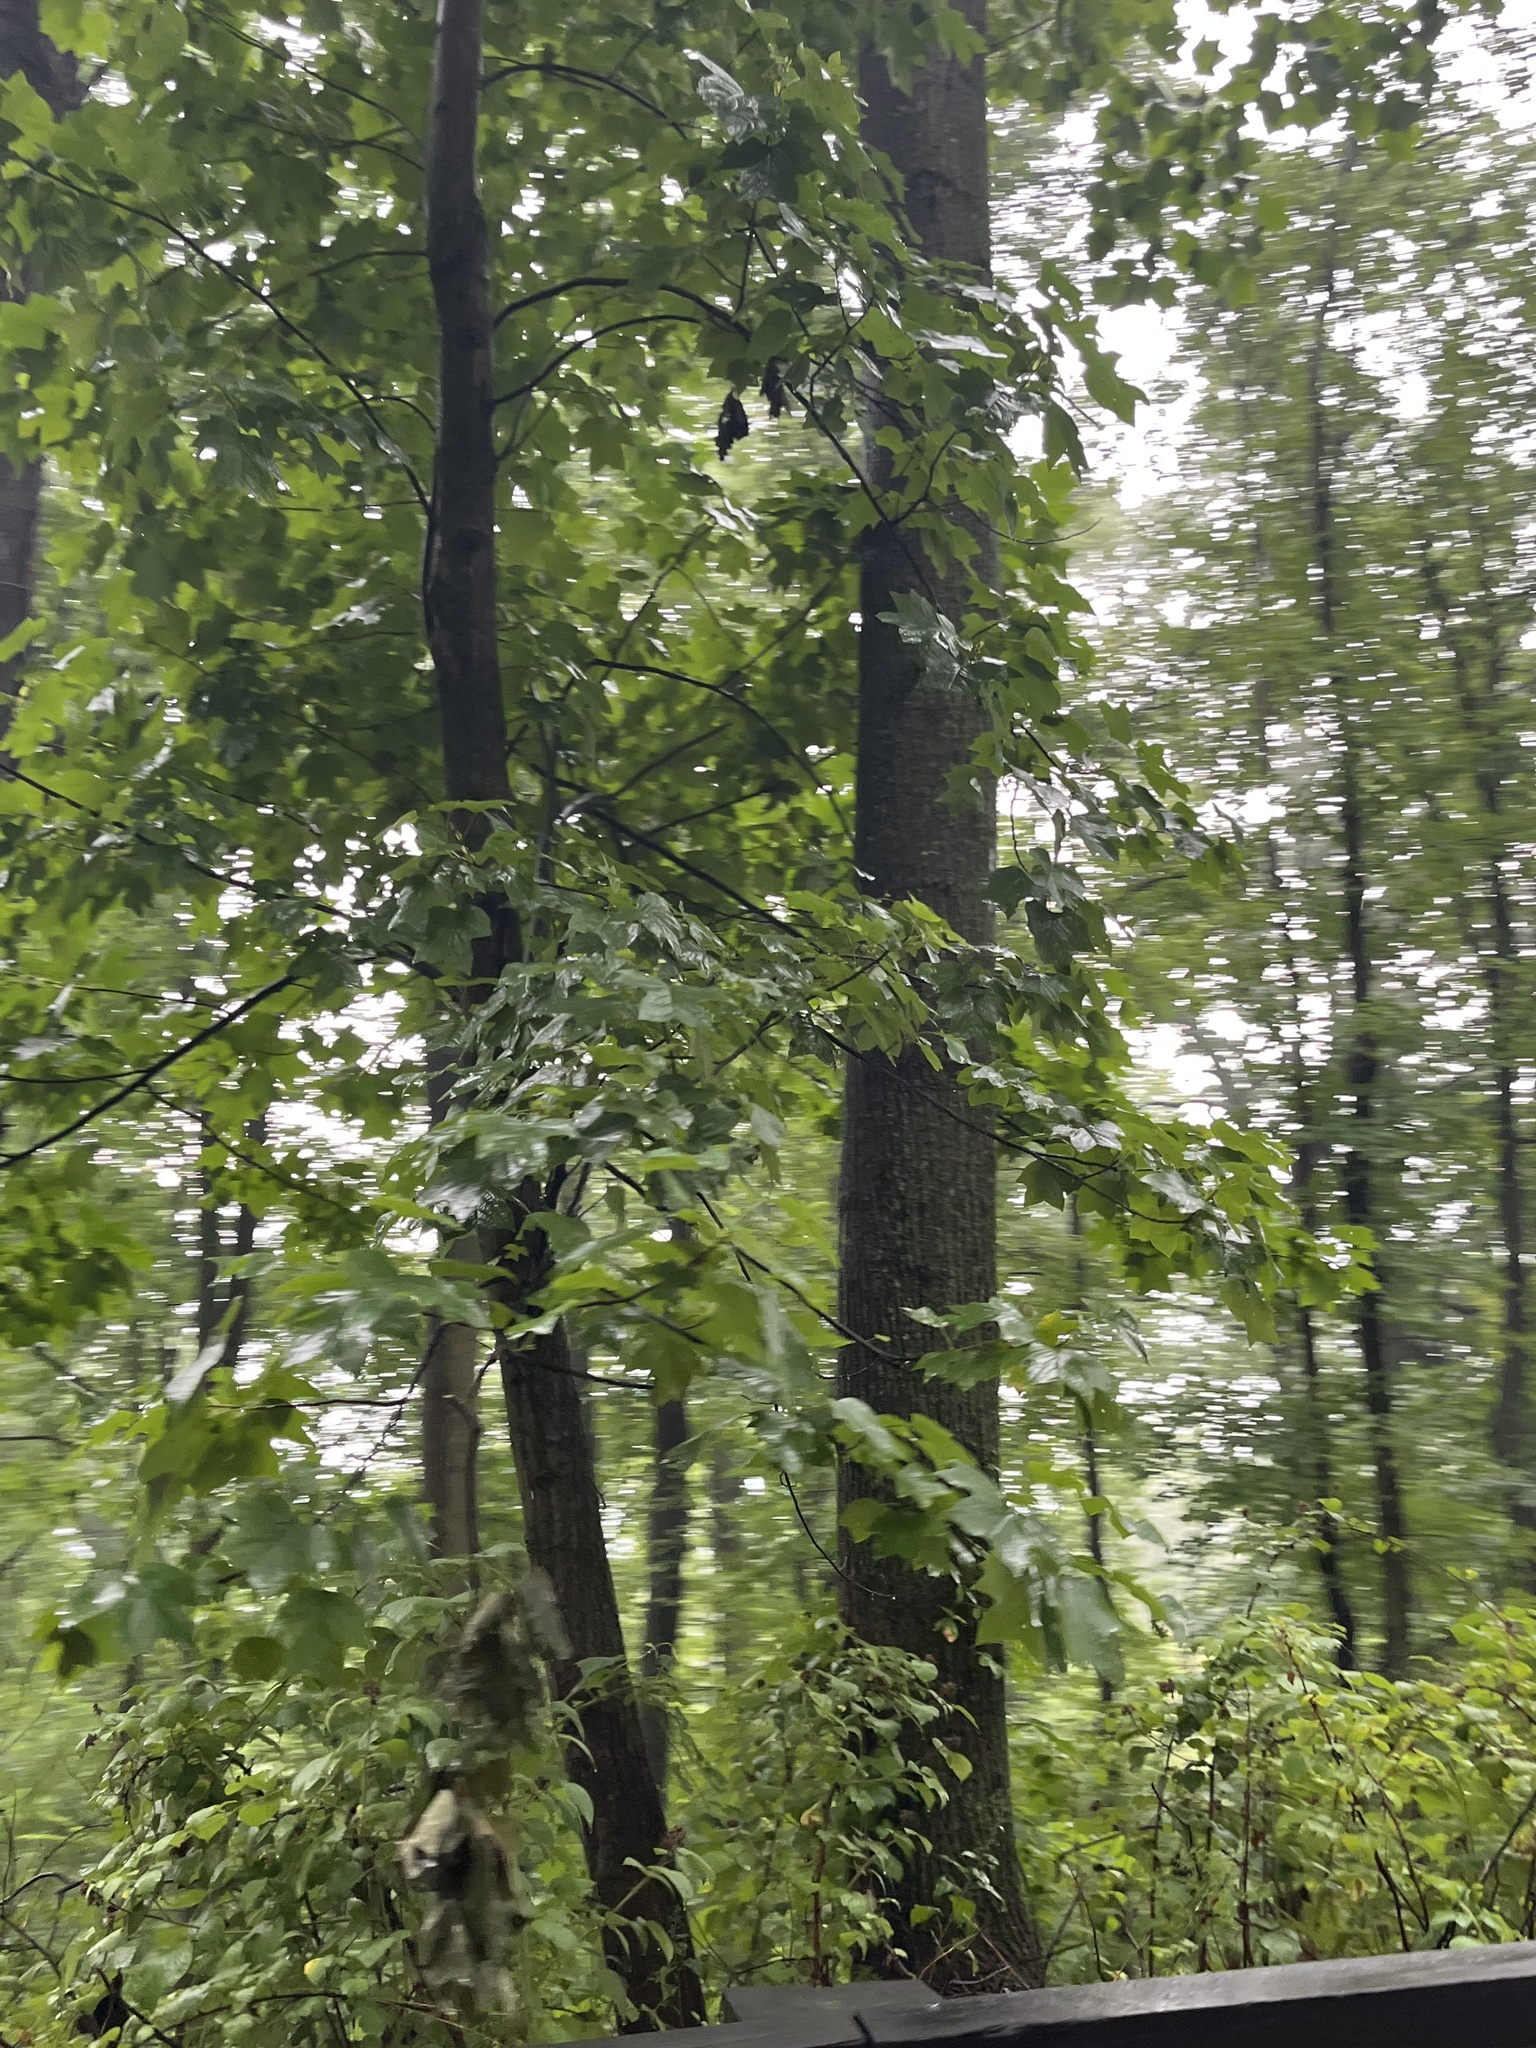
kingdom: Plantae
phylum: Tracheophyta
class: Magnoliopsida
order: Magnoliales
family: Magnoliaceae
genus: Liriodendron
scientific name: Liriodendron tulipifera
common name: Tulip tree
